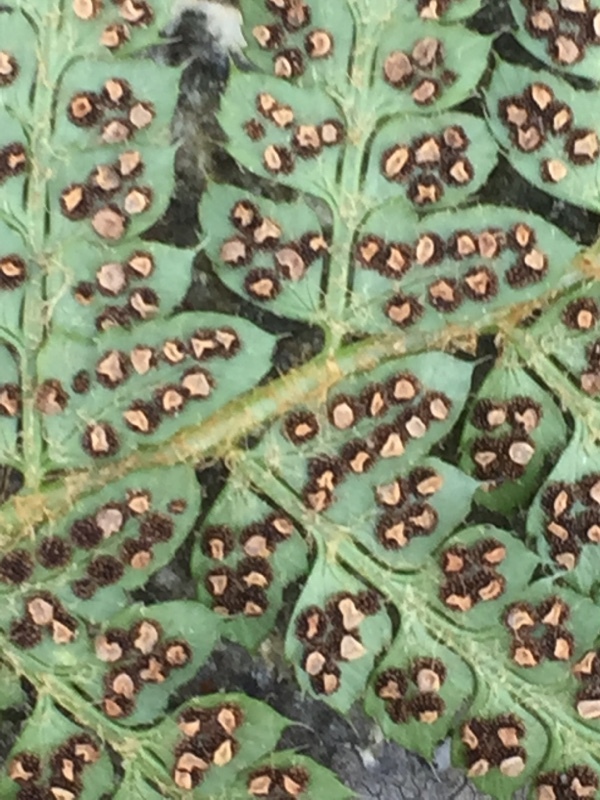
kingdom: Plantae
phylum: Tracheophyta
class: Polypodiopsida
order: Polypodiales
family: Dryopteridaceae
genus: Polystichum
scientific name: Polystichum setiferum
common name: Soft shield-fern
